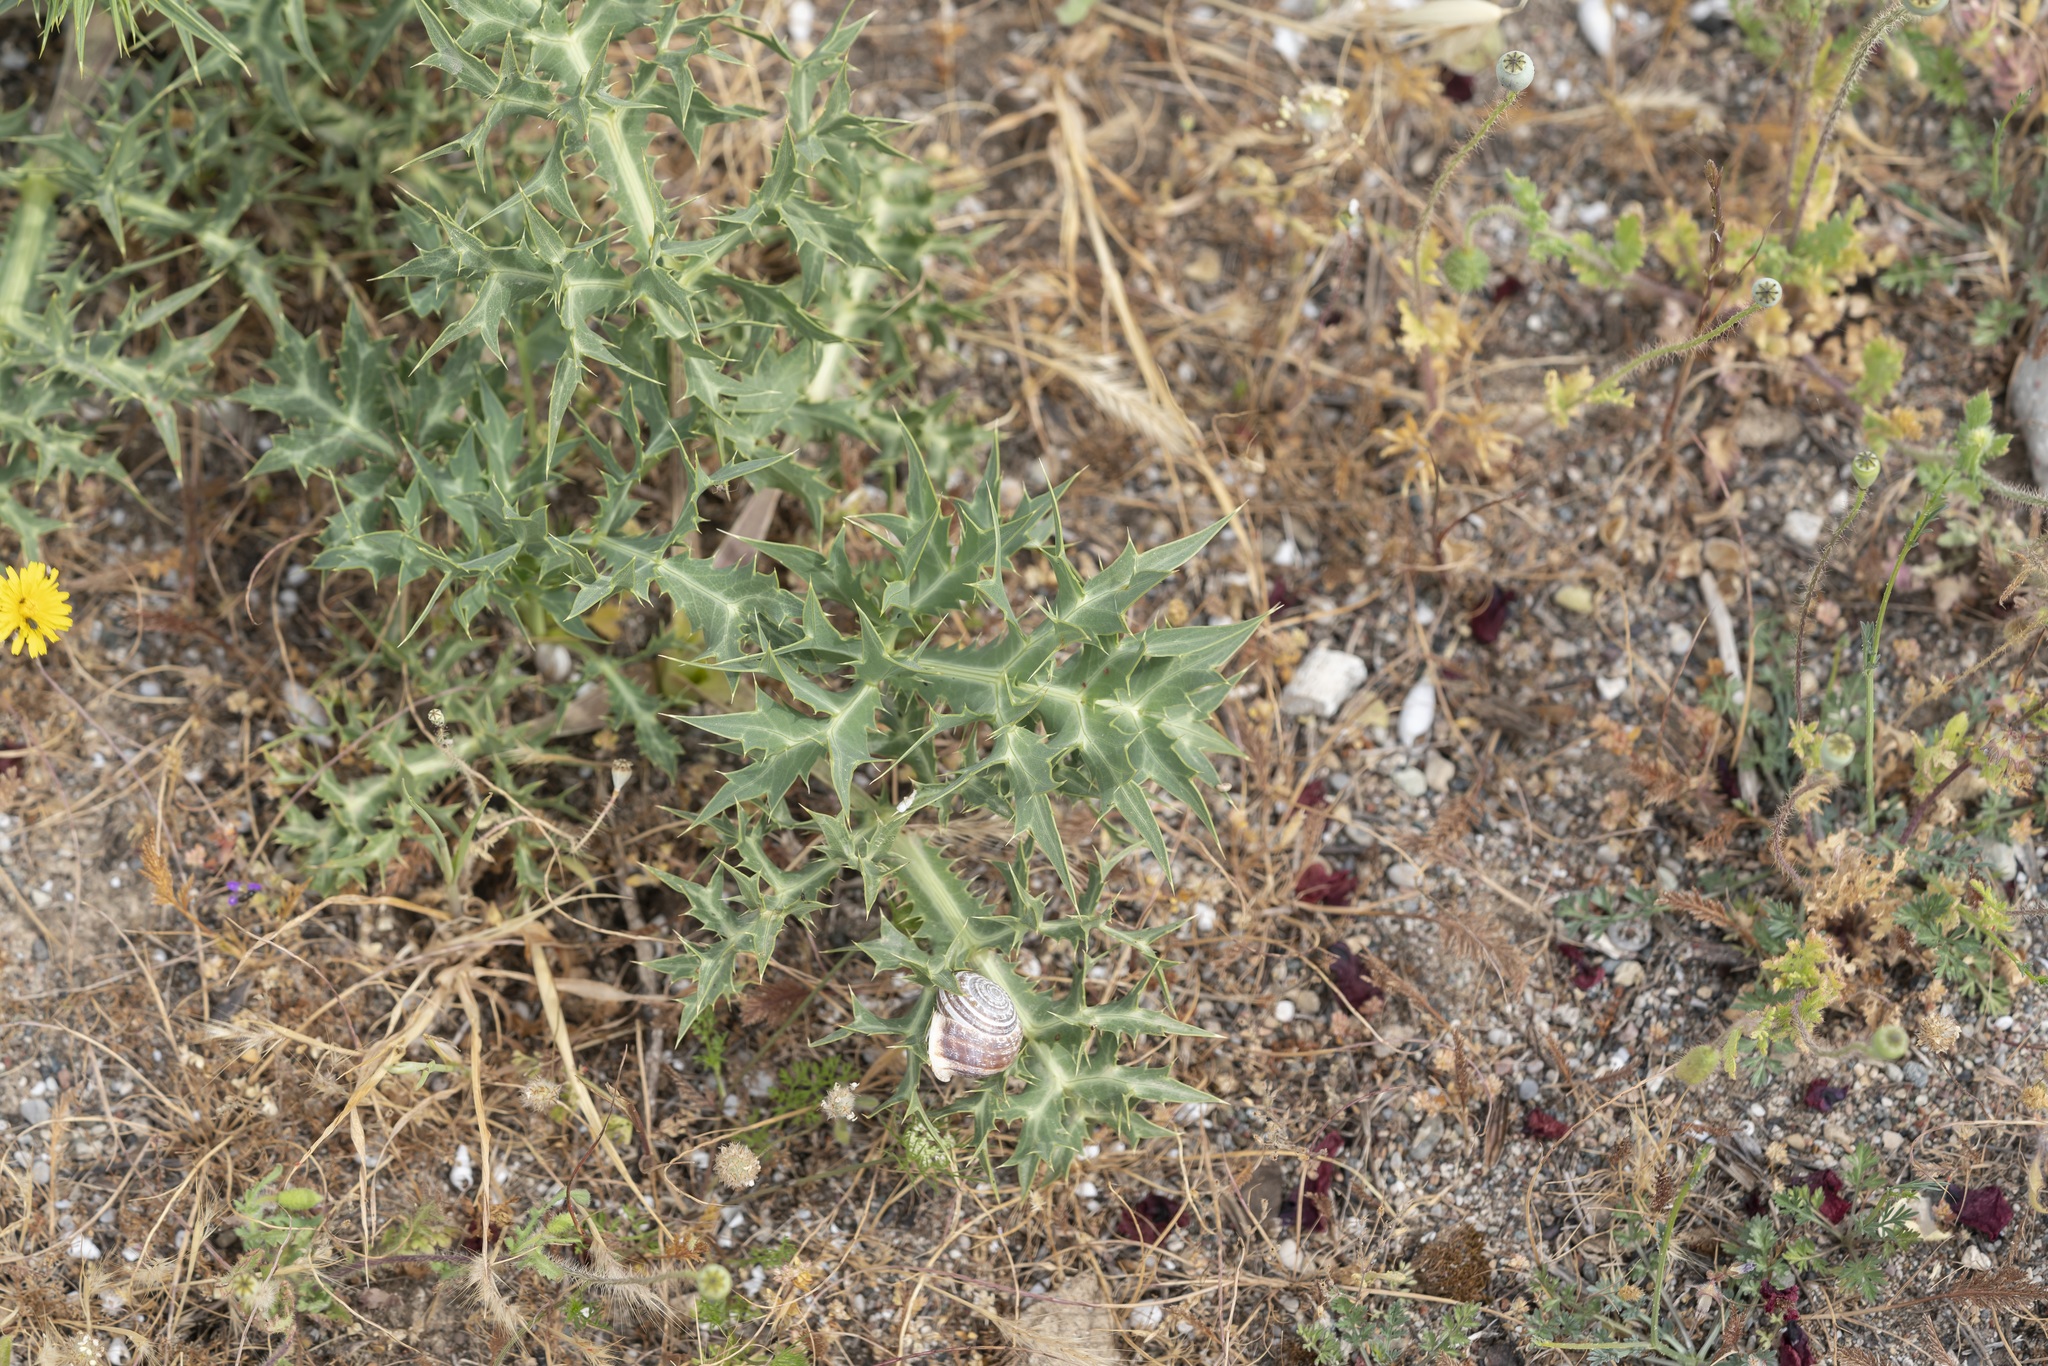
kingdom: Plantae
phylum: Tracheophyta
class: Magnoliopsida
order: Apiales
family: Apiaceae
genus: Eryngium
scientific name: Eryngium campestre
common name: Field eryngo
